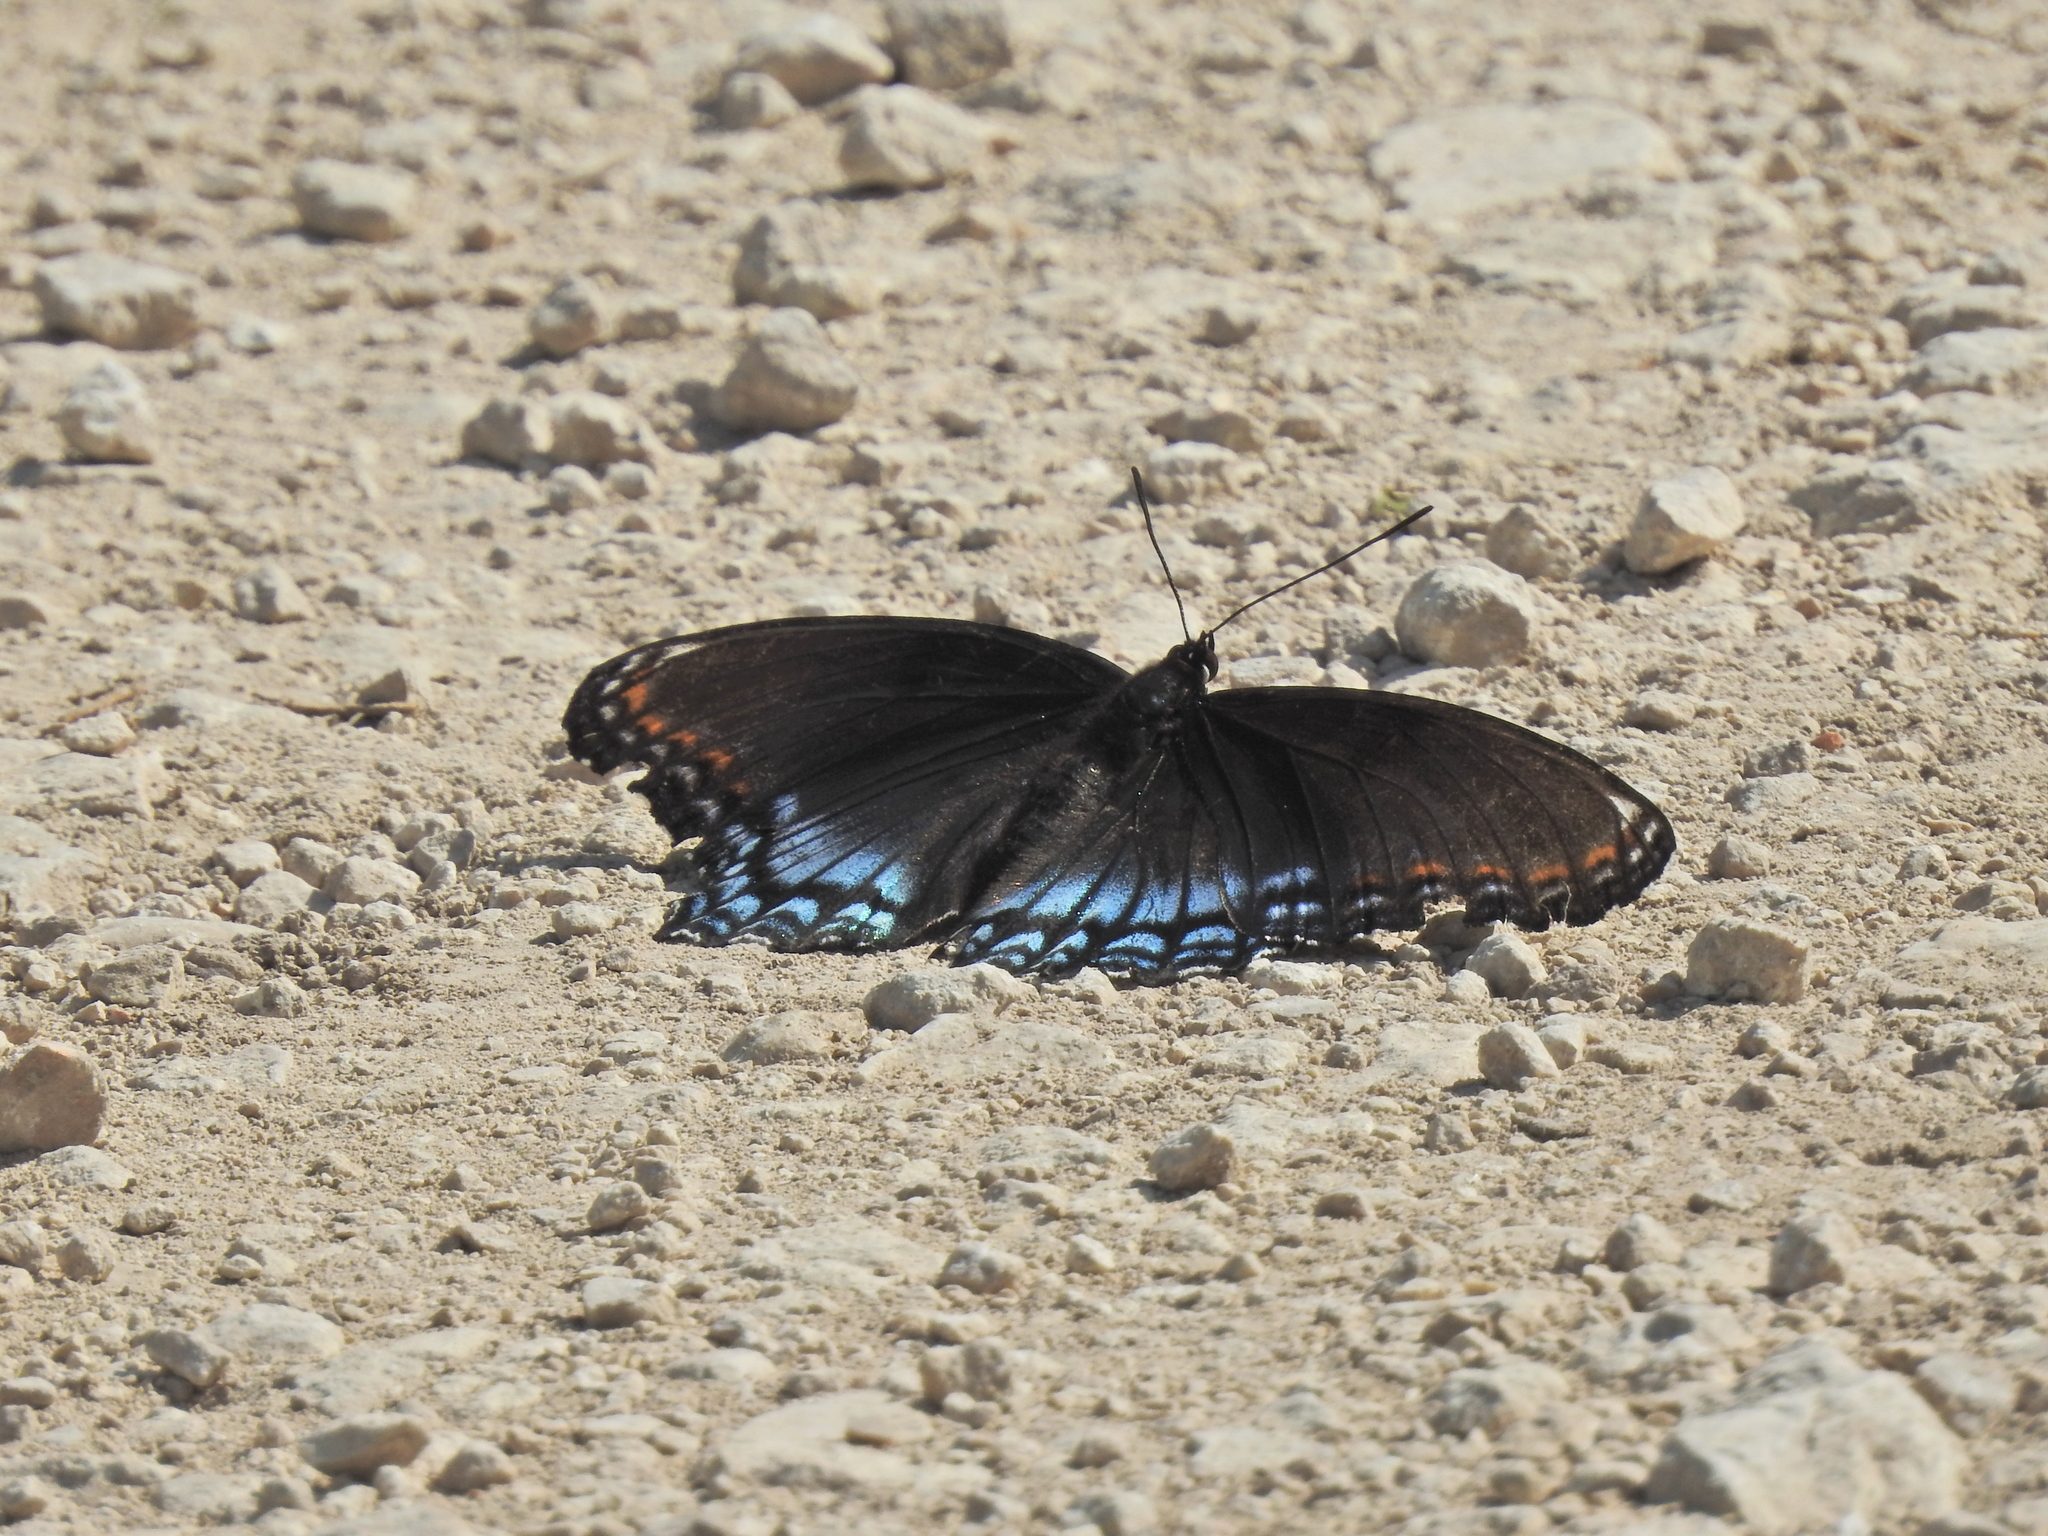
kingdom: Animalia
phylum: Arthropoda
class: Insecta
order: Lepidoptera
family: Nymphalidae
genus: Limenitis
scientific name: Limenitis arthemis
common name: Red-spotted admiral
